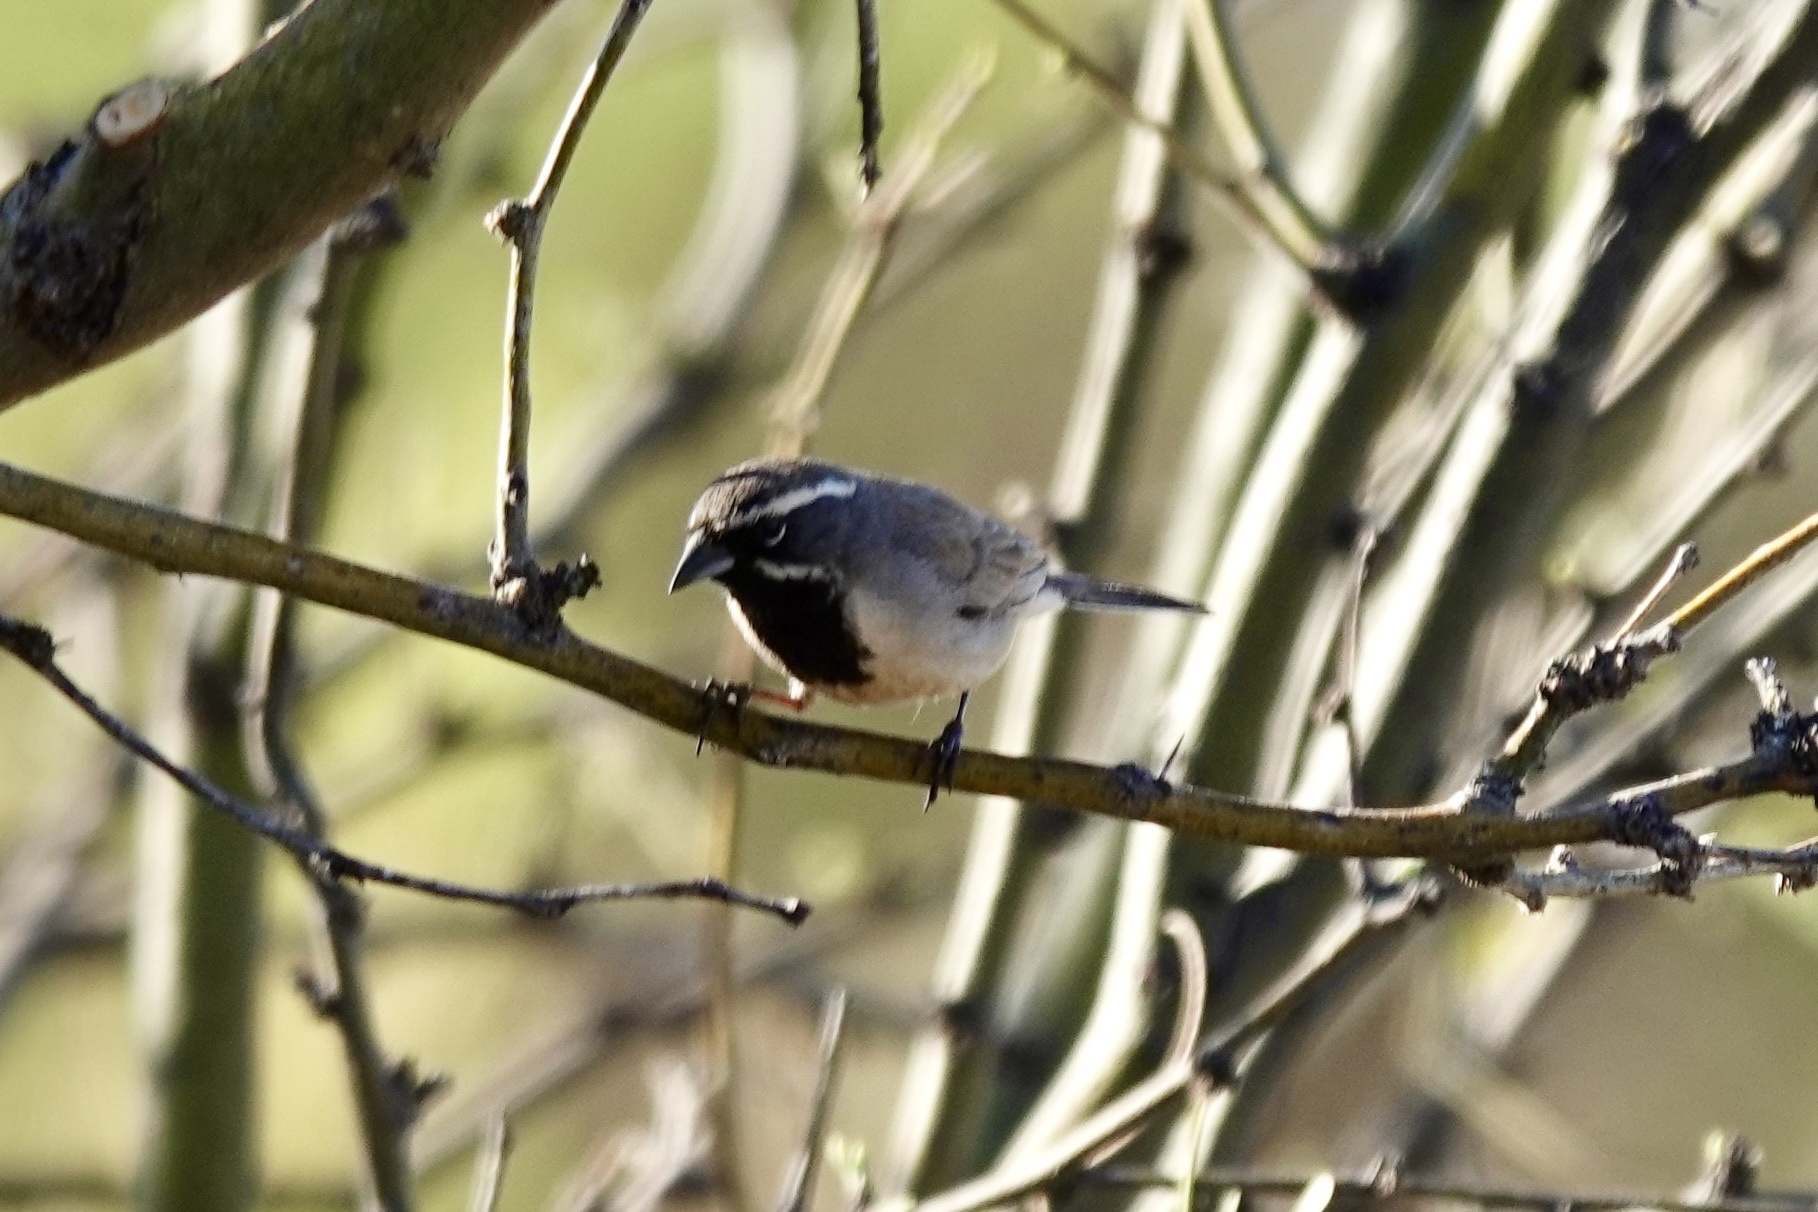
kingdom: Animalia
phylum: Chordata
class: Aves
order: Passeriformes
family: Passerellidae
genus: Amphispiza
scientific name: Amphispiza bilineata
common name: Black-throated sparrow
